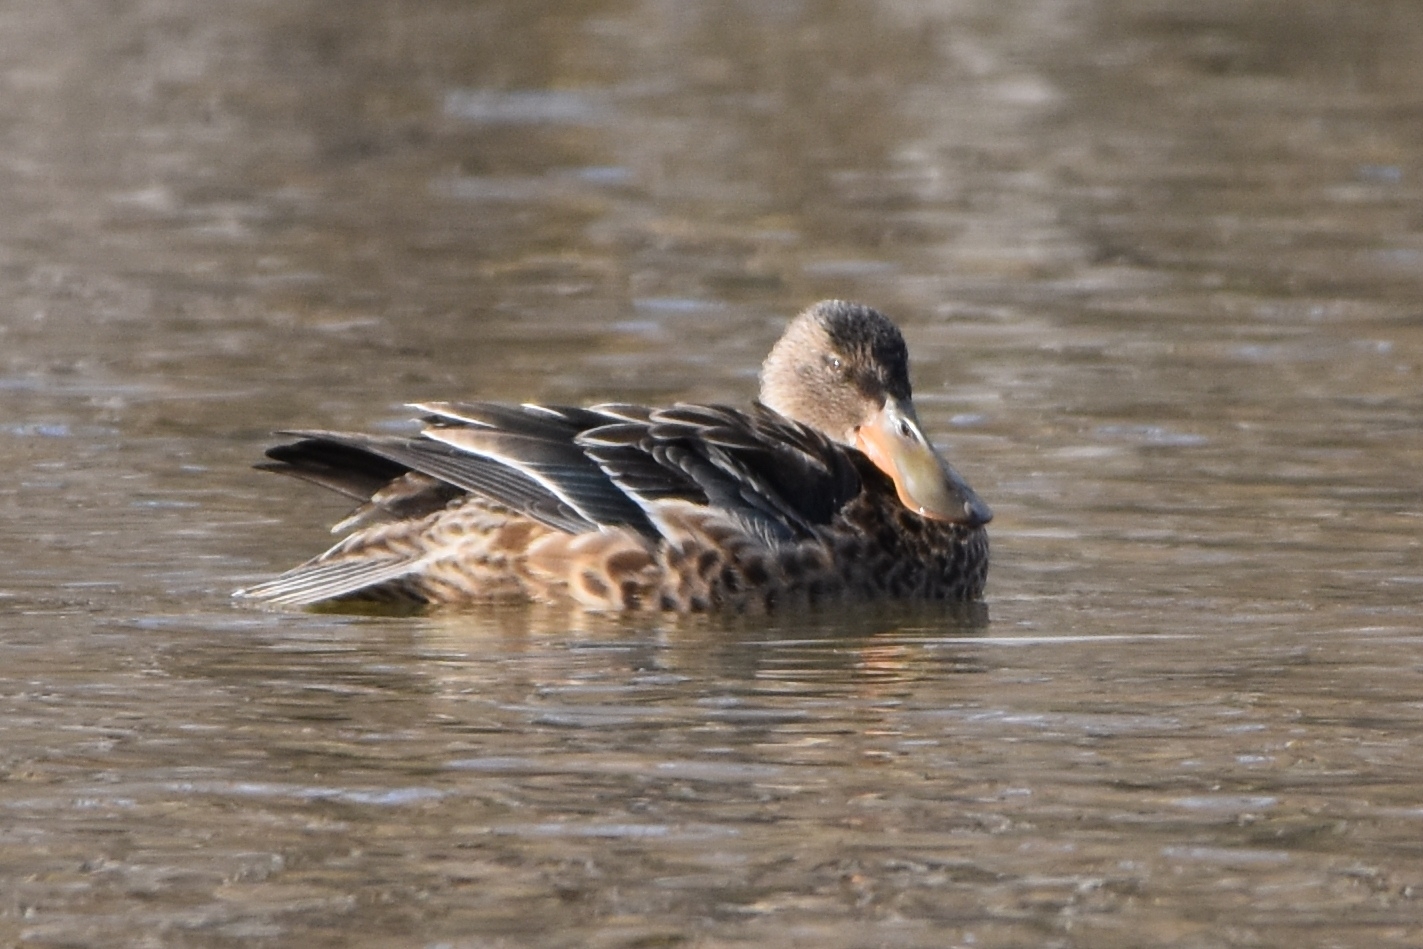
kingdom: Animalia
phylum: Chordata
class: Aves
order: Anseriformes
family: Anatidae
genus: Spatula
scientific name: Spatula clypeata
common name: Northern shoveler
